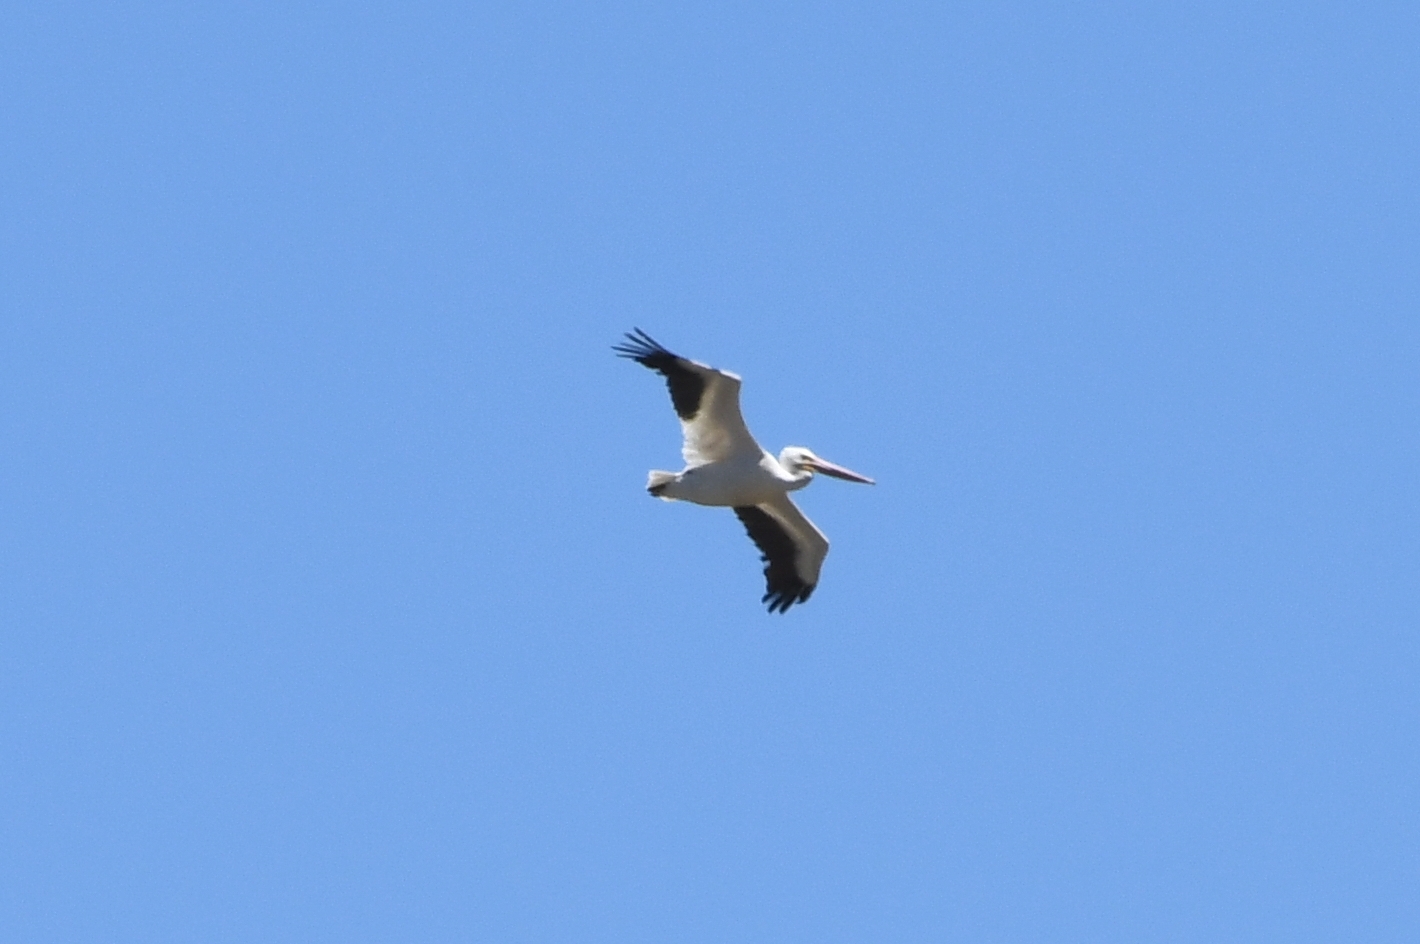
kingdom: Animalia
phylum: Chordata
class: Aves
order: Pelecaniformes
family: Pelecanidae
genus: Pelecanus
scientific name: Pelecanus erythrorhynchos
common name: American white pelican
